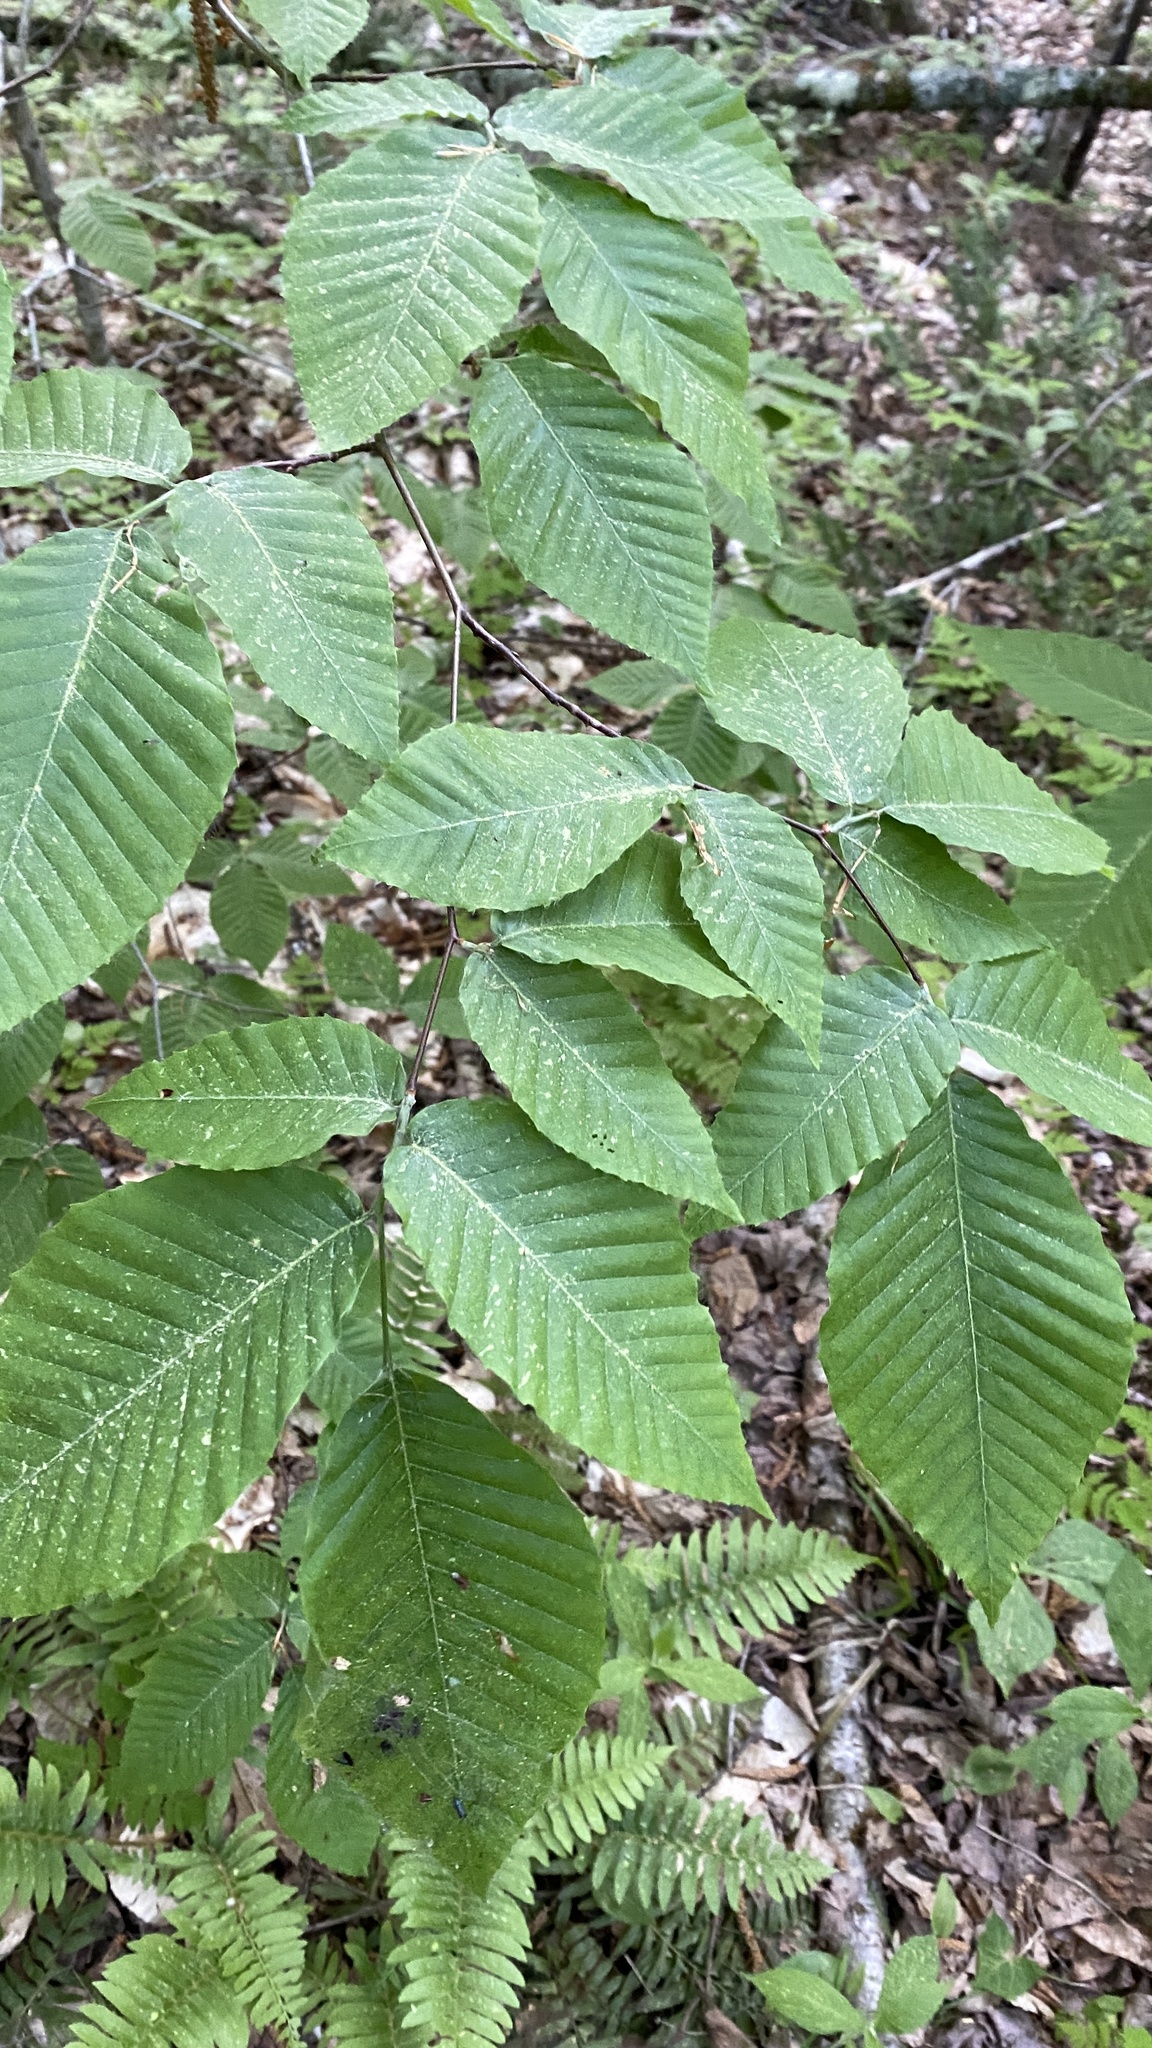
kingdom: Plantae
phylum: Tracheophyta
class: Magnoliopsida
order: Fagales
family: Fagaceae
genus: Fagus
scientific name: Fagus grandifolia
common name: American beech
